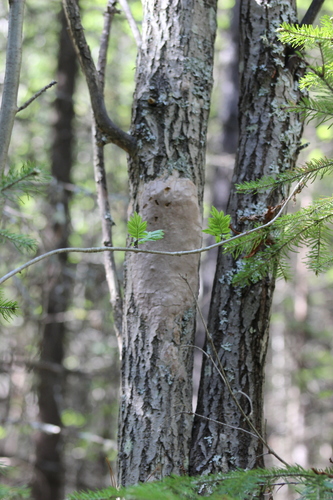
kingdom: Fungi
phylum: Basidiomycota
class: Agaricomycetes
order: Hymenochaetales
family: Hymenochaetaceae
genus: Fomitiporia
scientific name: Fomitiporia punctata
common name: Elbowpatch crust
